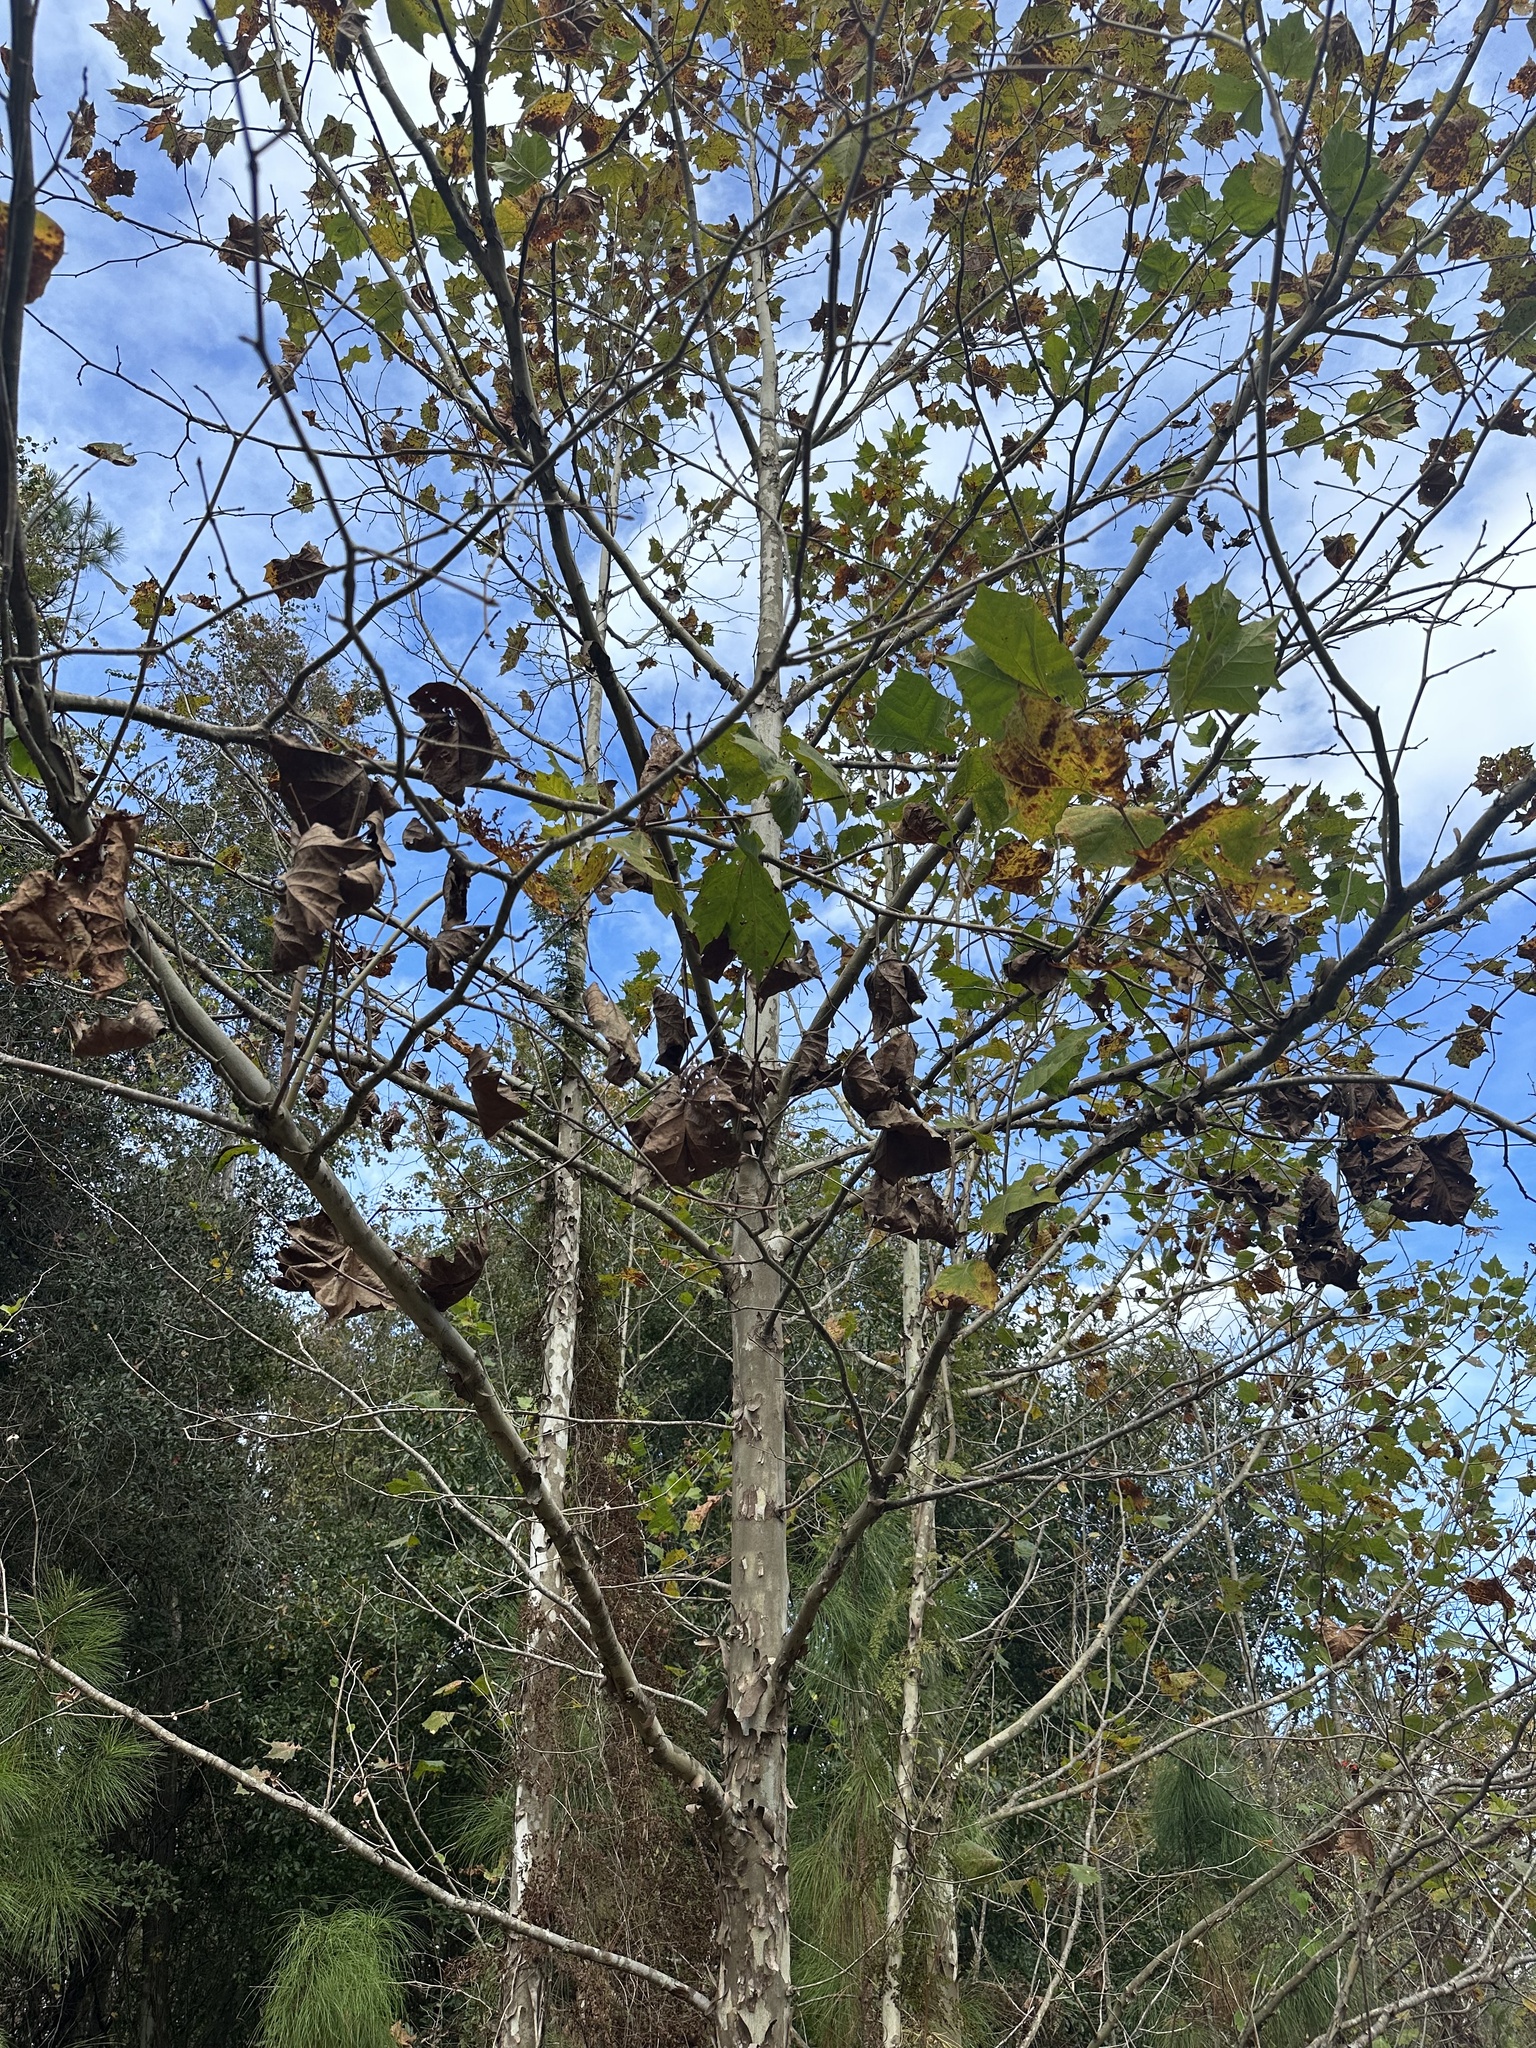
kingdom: Plantae
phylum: Tracheophyta
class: Magnoliopsida
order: Proteales
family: Platanaceae
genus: Platanus
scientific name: Platanus occidentalis
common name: American sycamore
